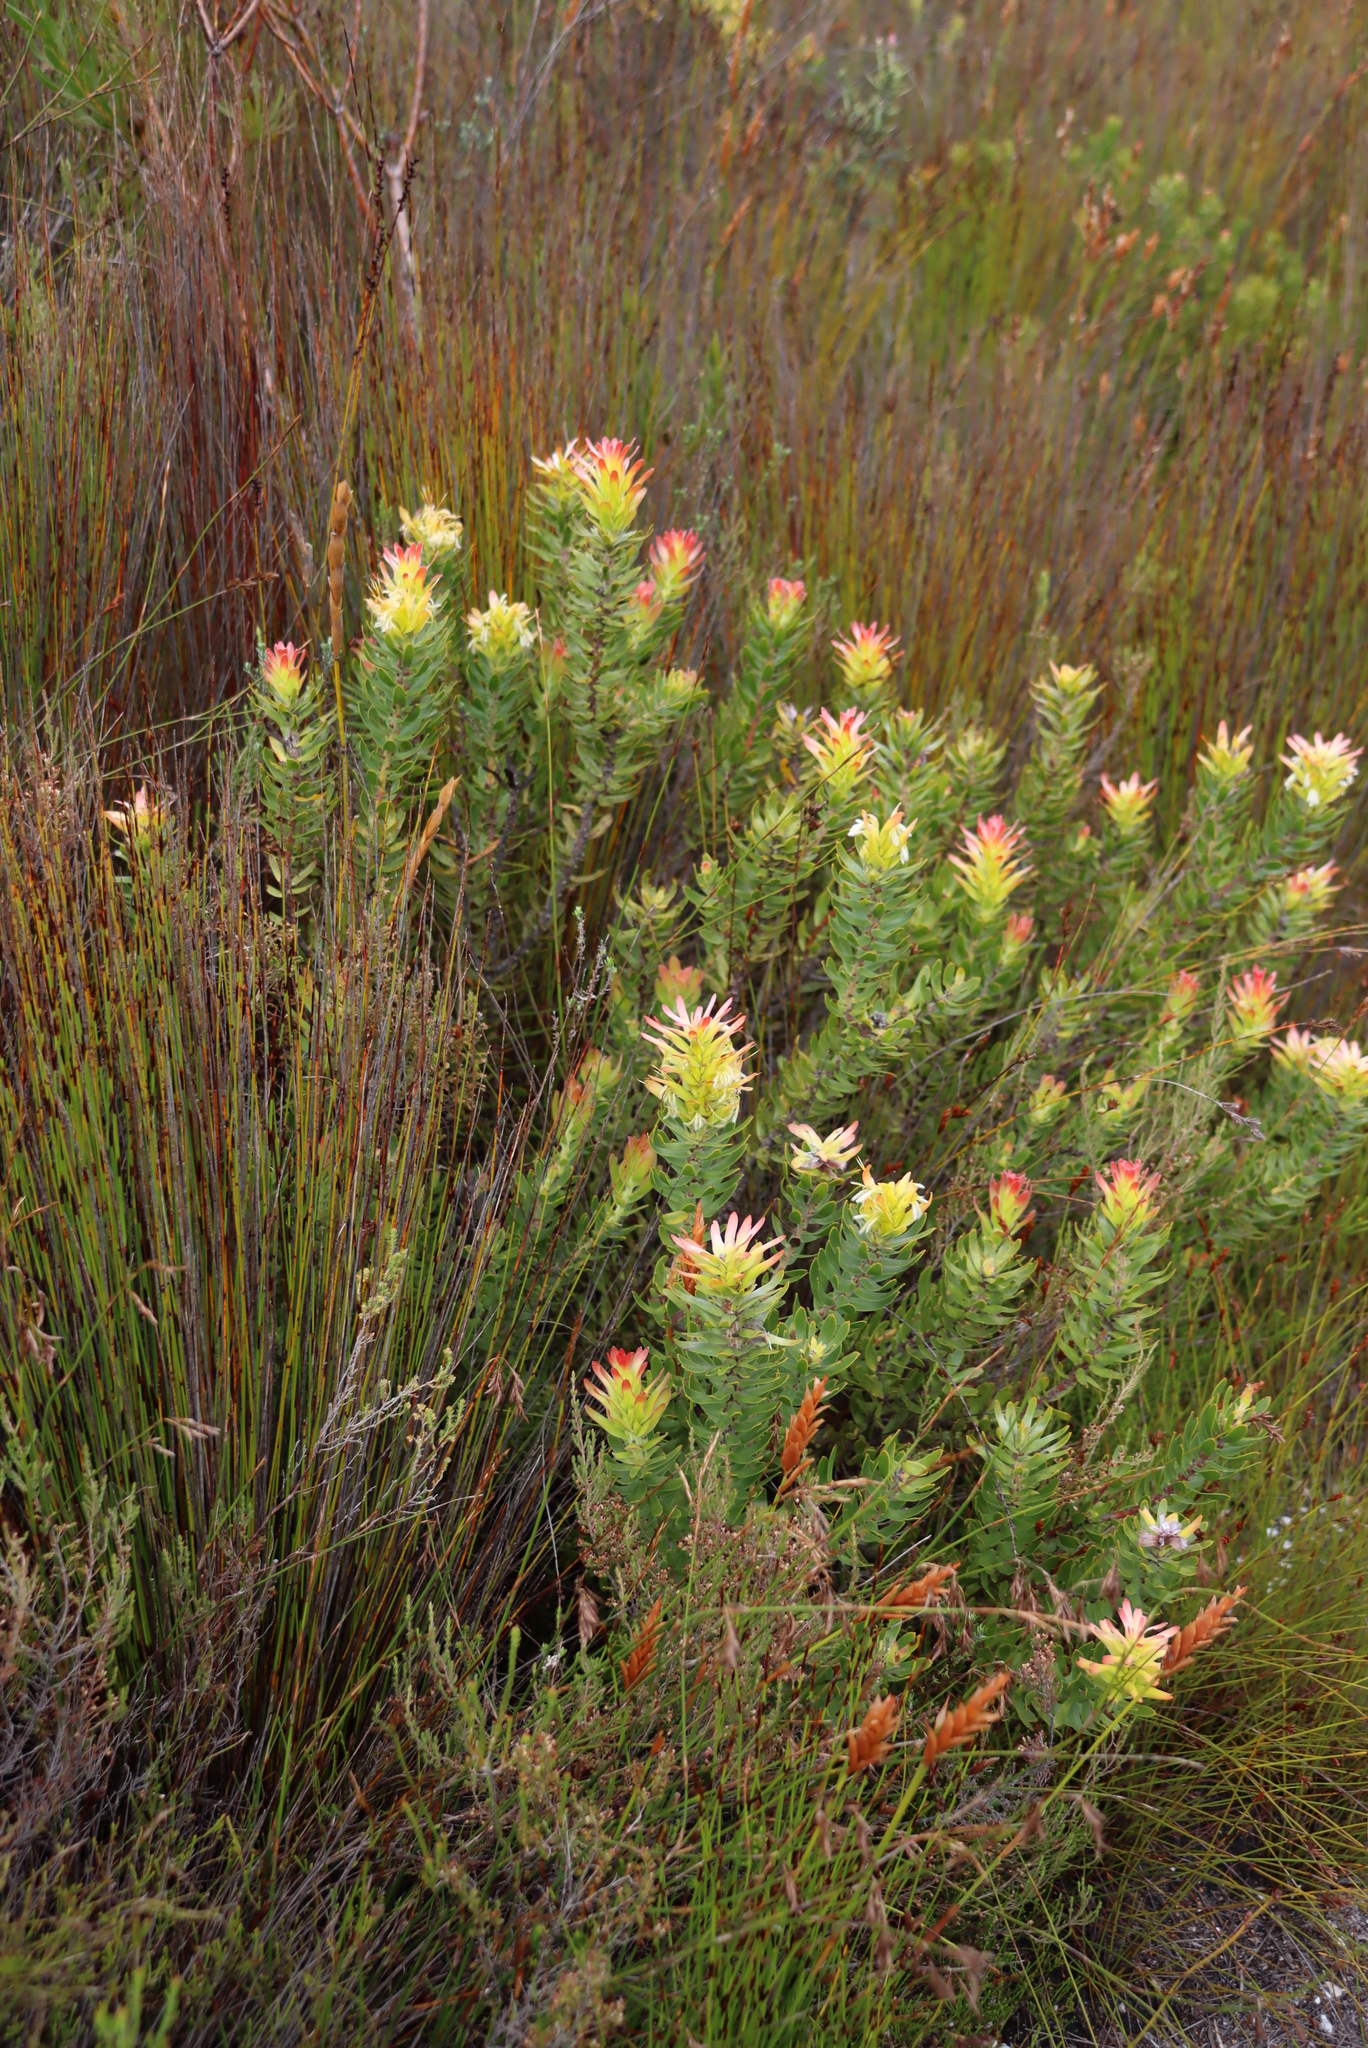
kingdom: Plantae
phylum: Tracheophyta
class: Magnoliopsida
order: Proteales
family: Proteaceae
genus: Mimetes
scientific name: Mimetes cucullatus
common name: Common pagoda
